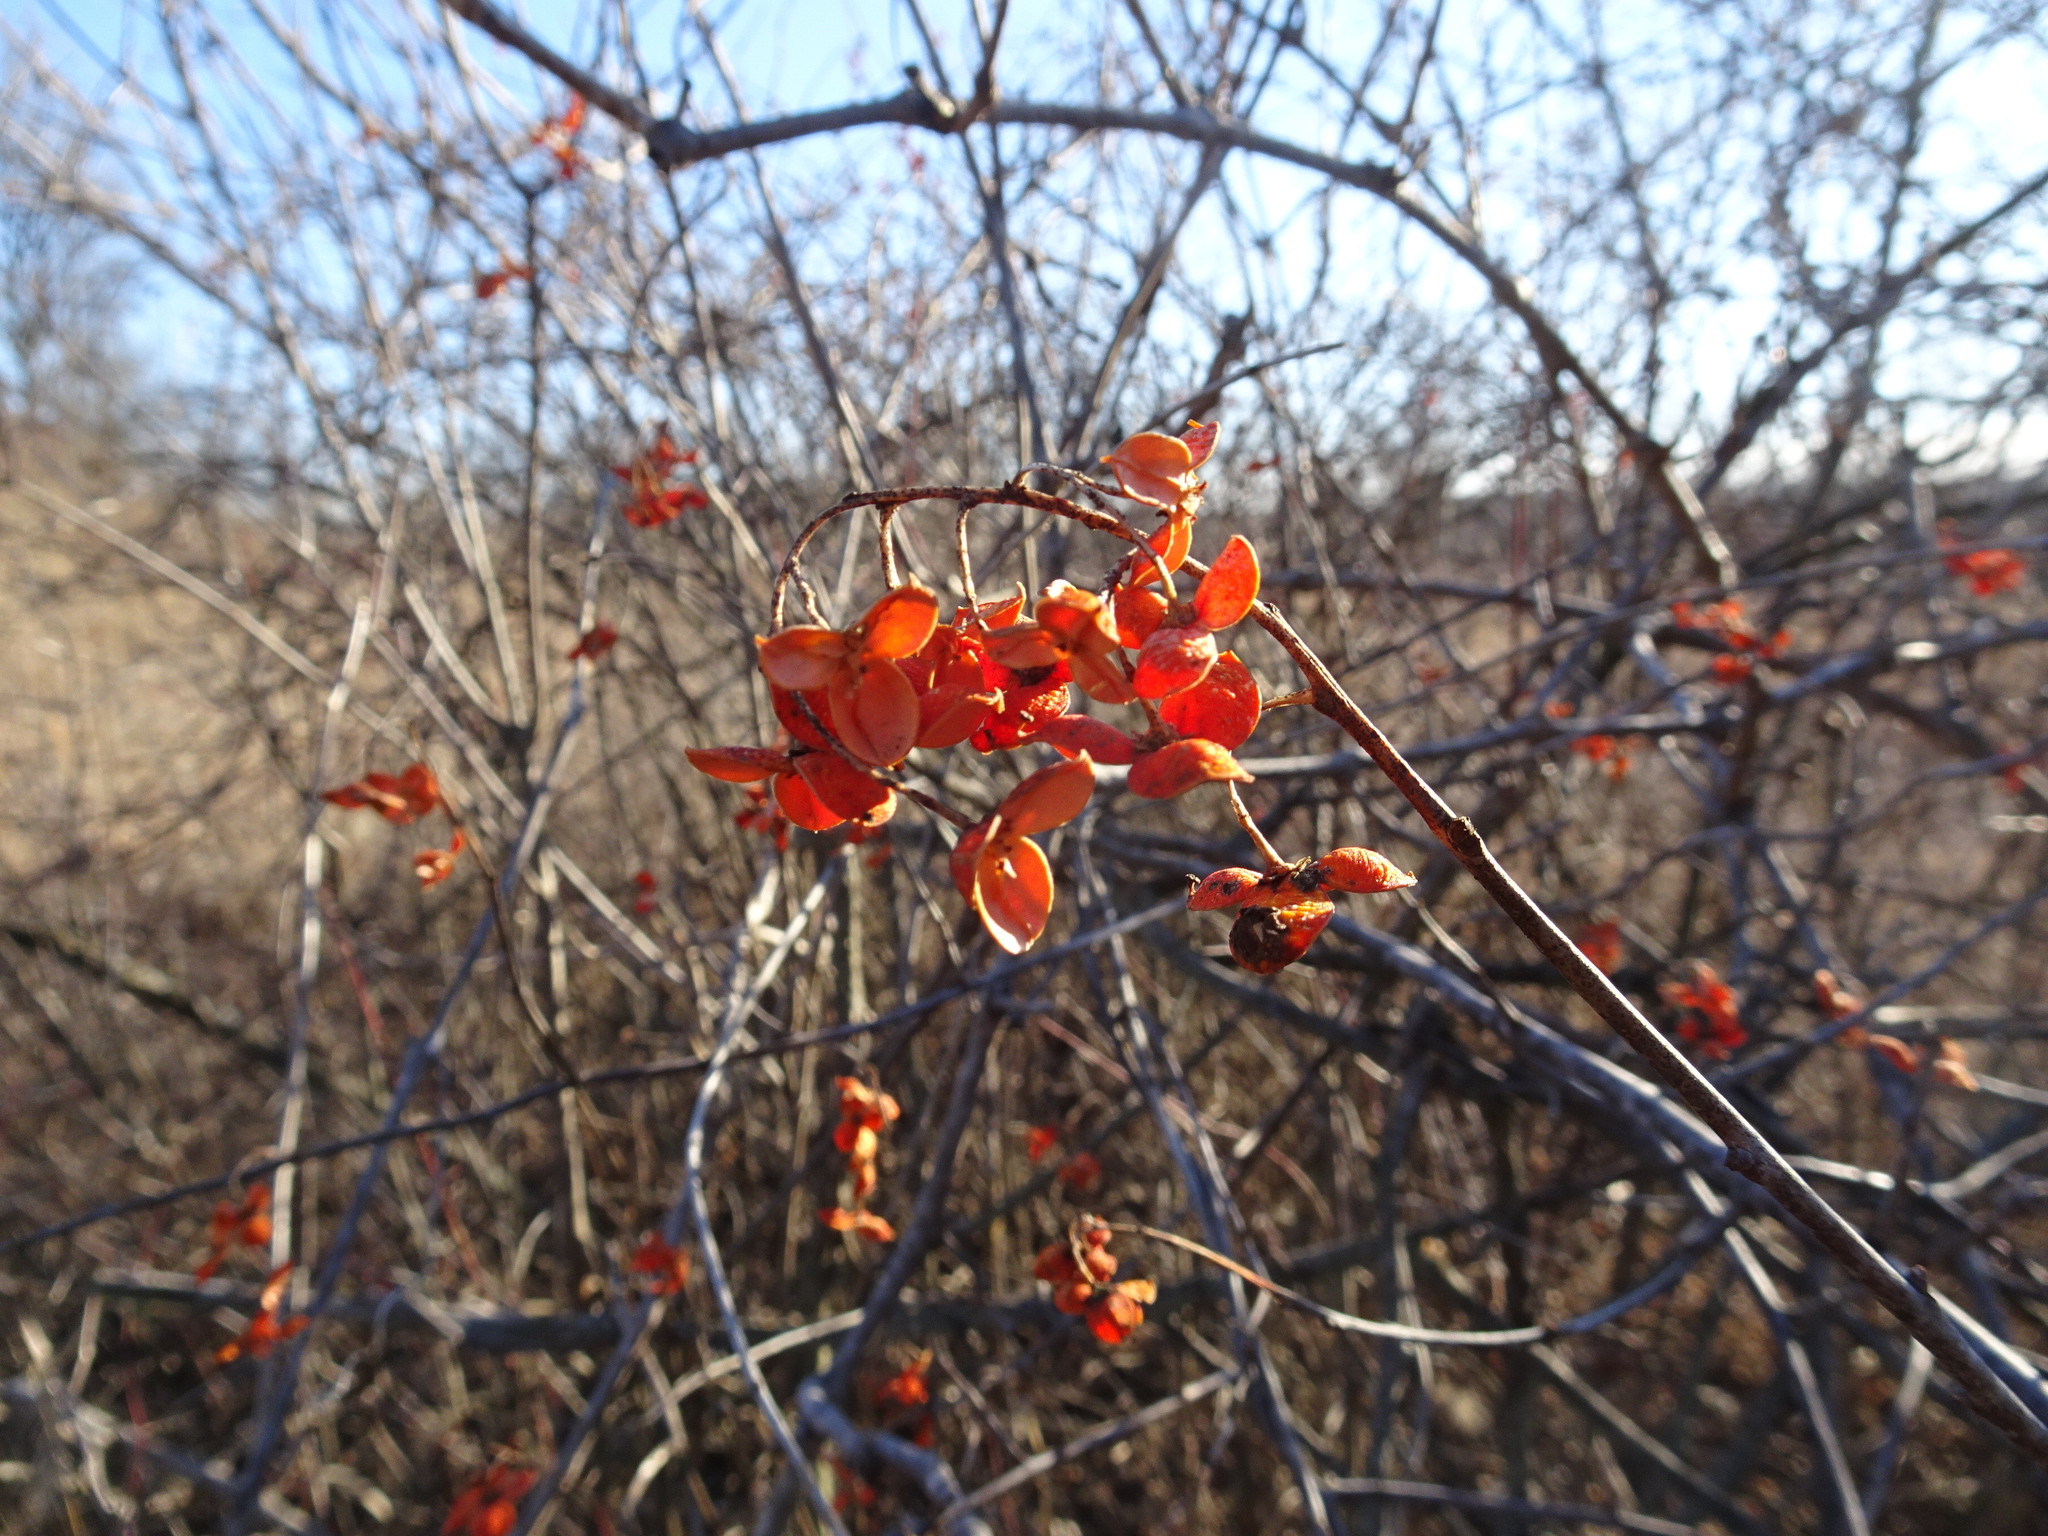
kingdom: Plantae
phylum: Tracheophyta
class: Magnoliopsida
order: Celastrales
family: Celastraceae
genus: Celastrus
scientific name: Celastrus scandens
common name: American bittersweet
